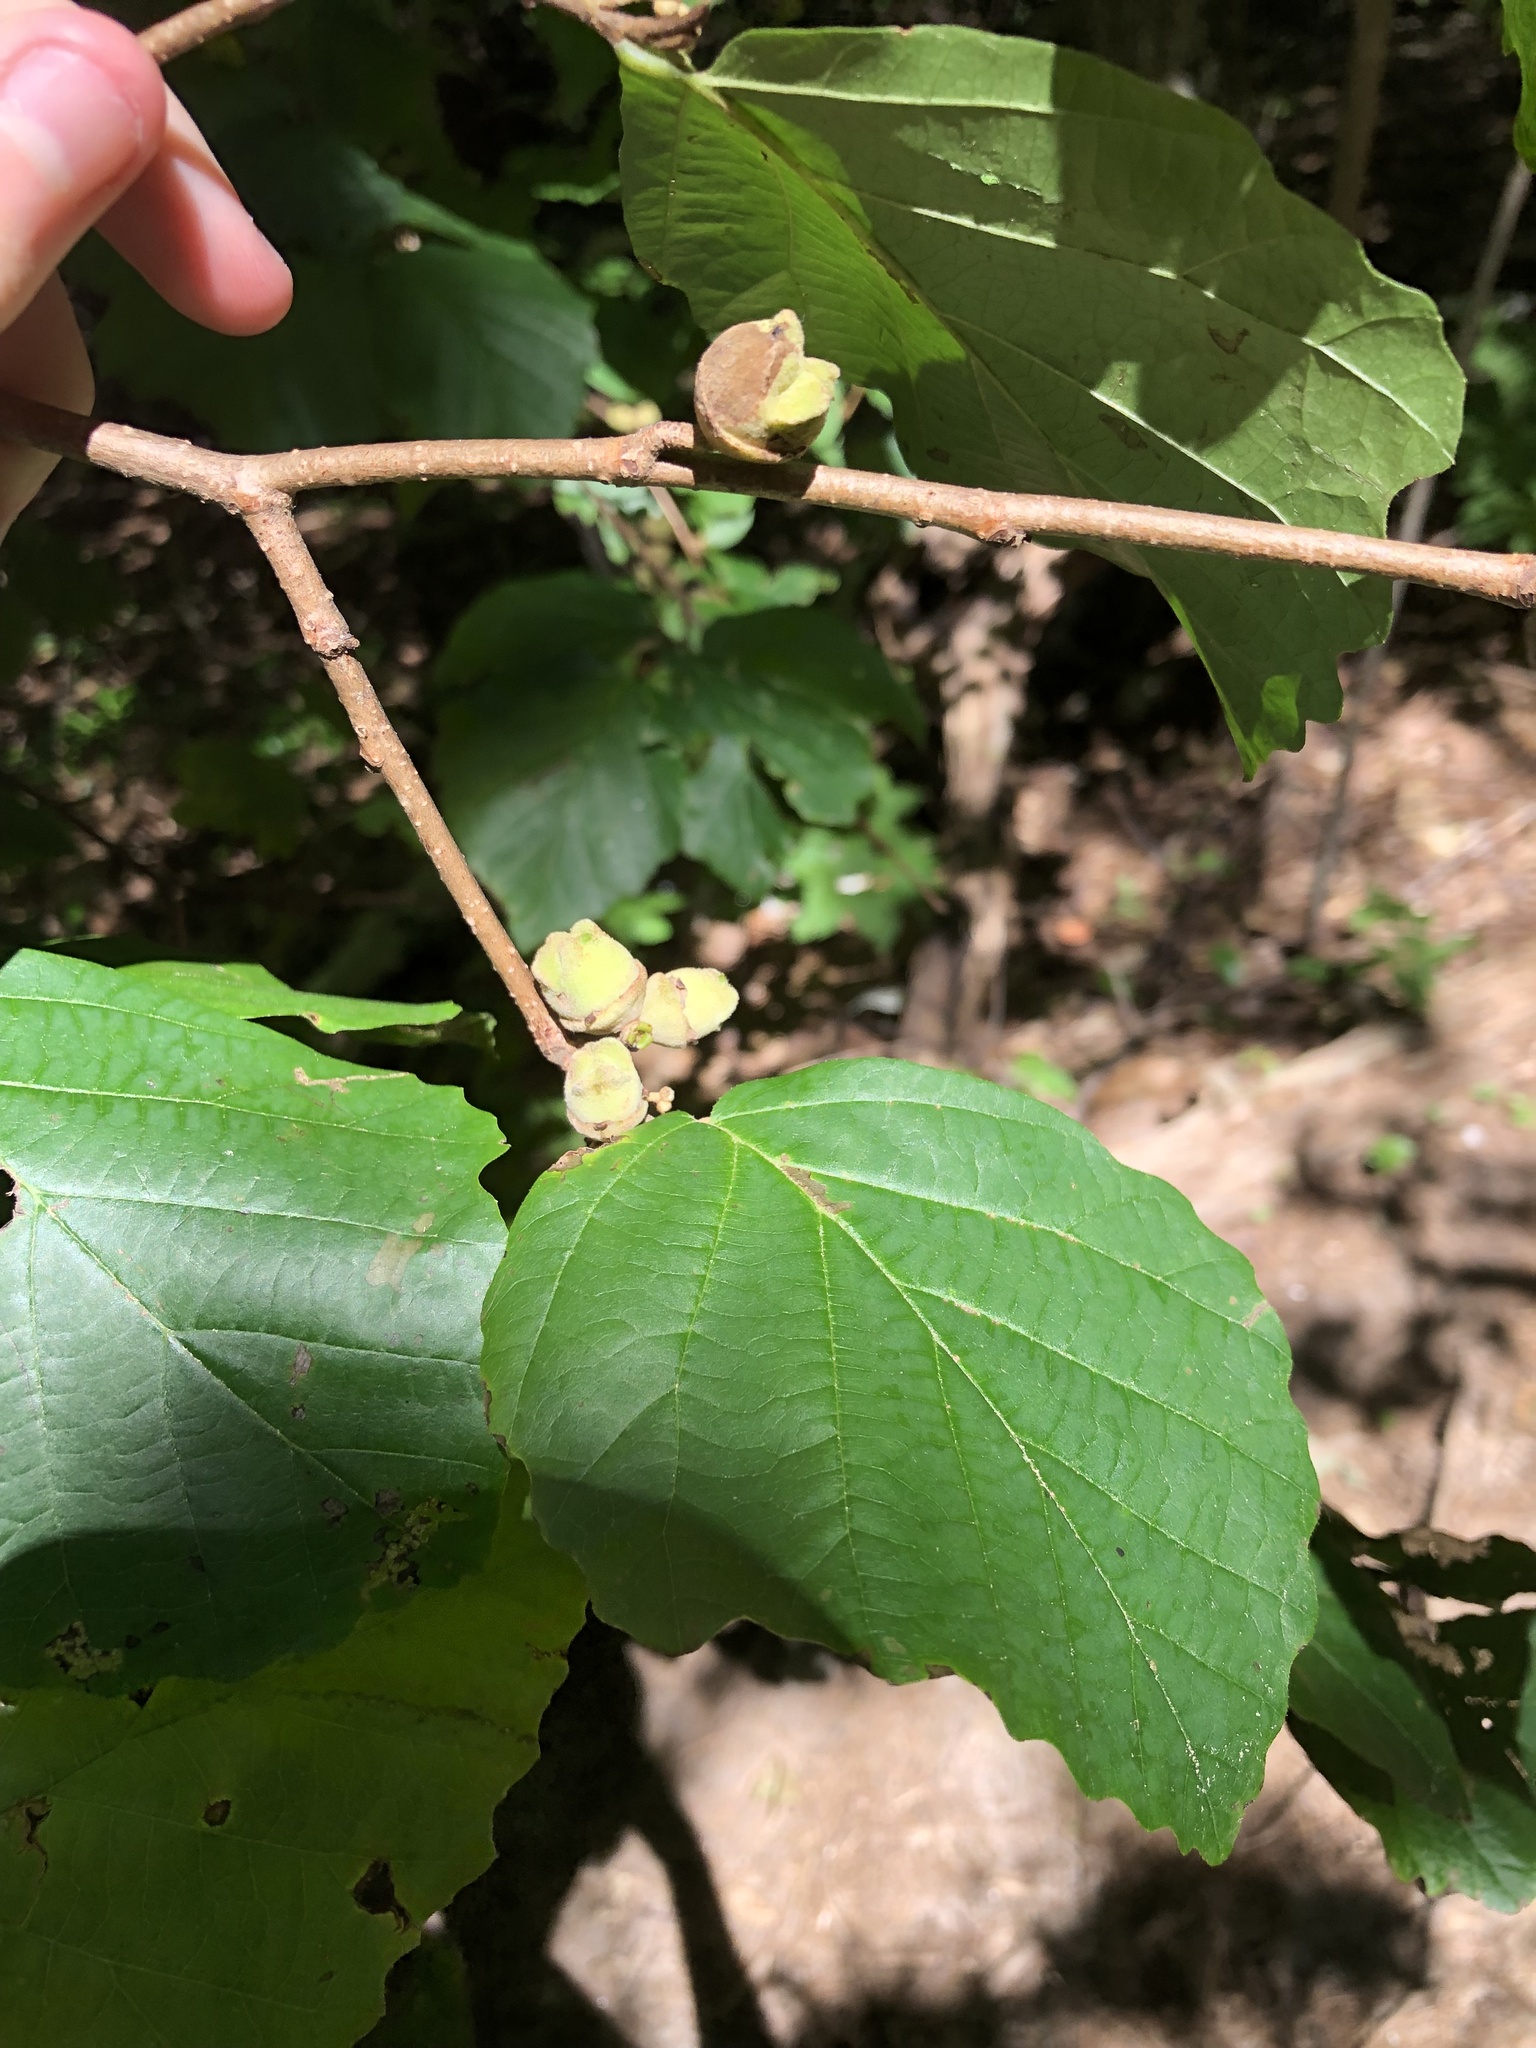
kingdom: Plantae
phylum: Tracheophyta
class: Magnoliopsida
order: Saxifragales
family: Hamamelidaceae
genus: Hamamelis
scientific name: Hamamelis virginiana
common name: Witch-hazel
